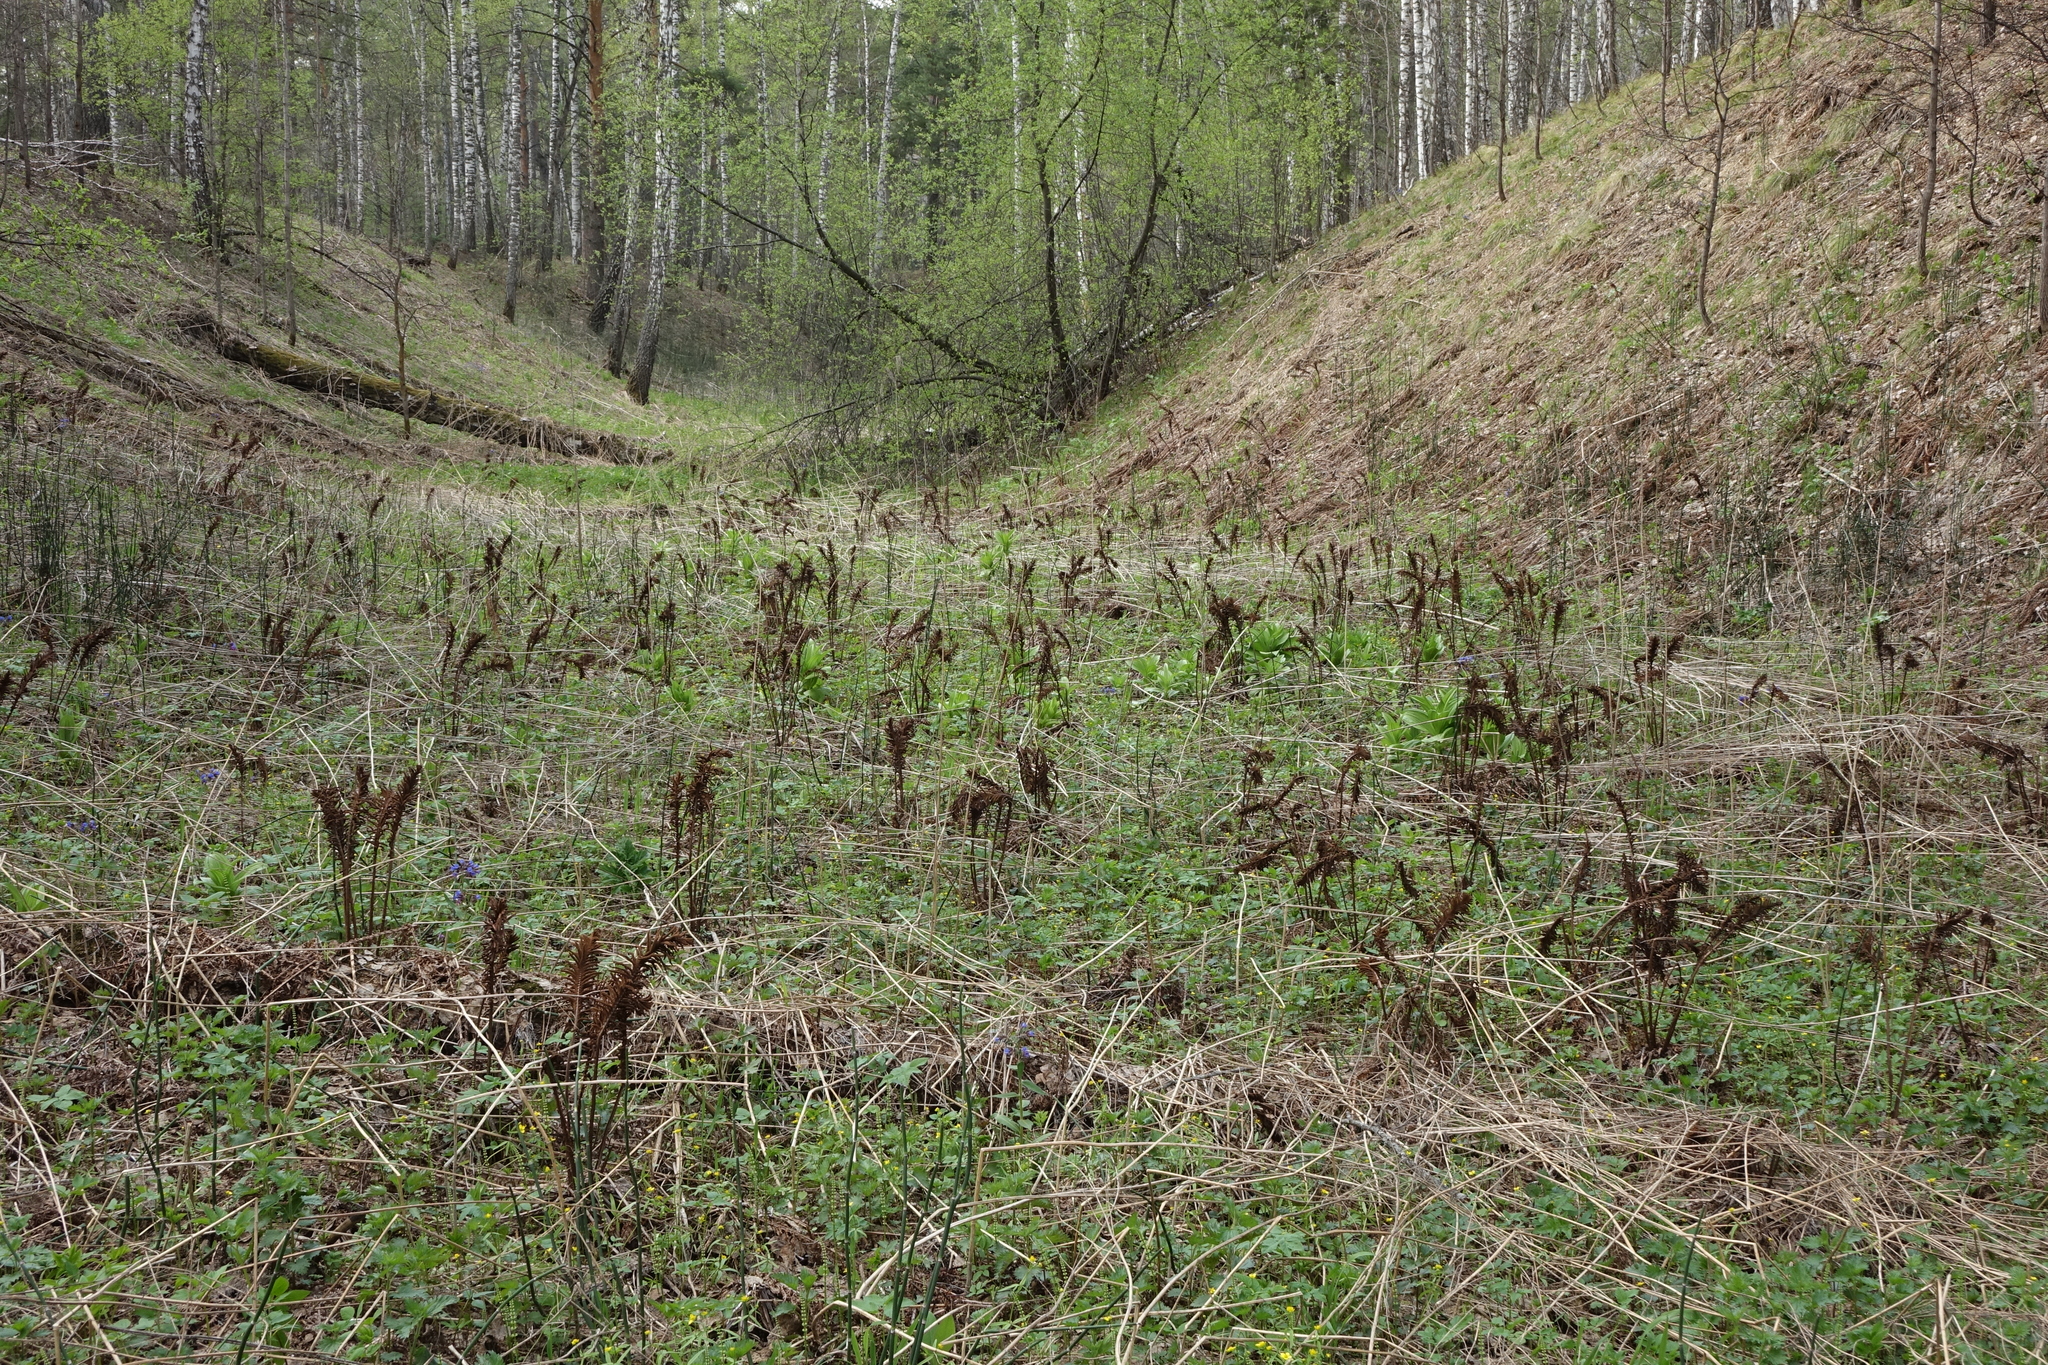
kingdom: Plantae
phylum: Tracheophyta
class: Polypodiopsida
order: Polypodiales
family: Onocleaceae
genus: Matteuccia
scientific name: Matteuccia struthiopteris
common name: Ostrich fern
